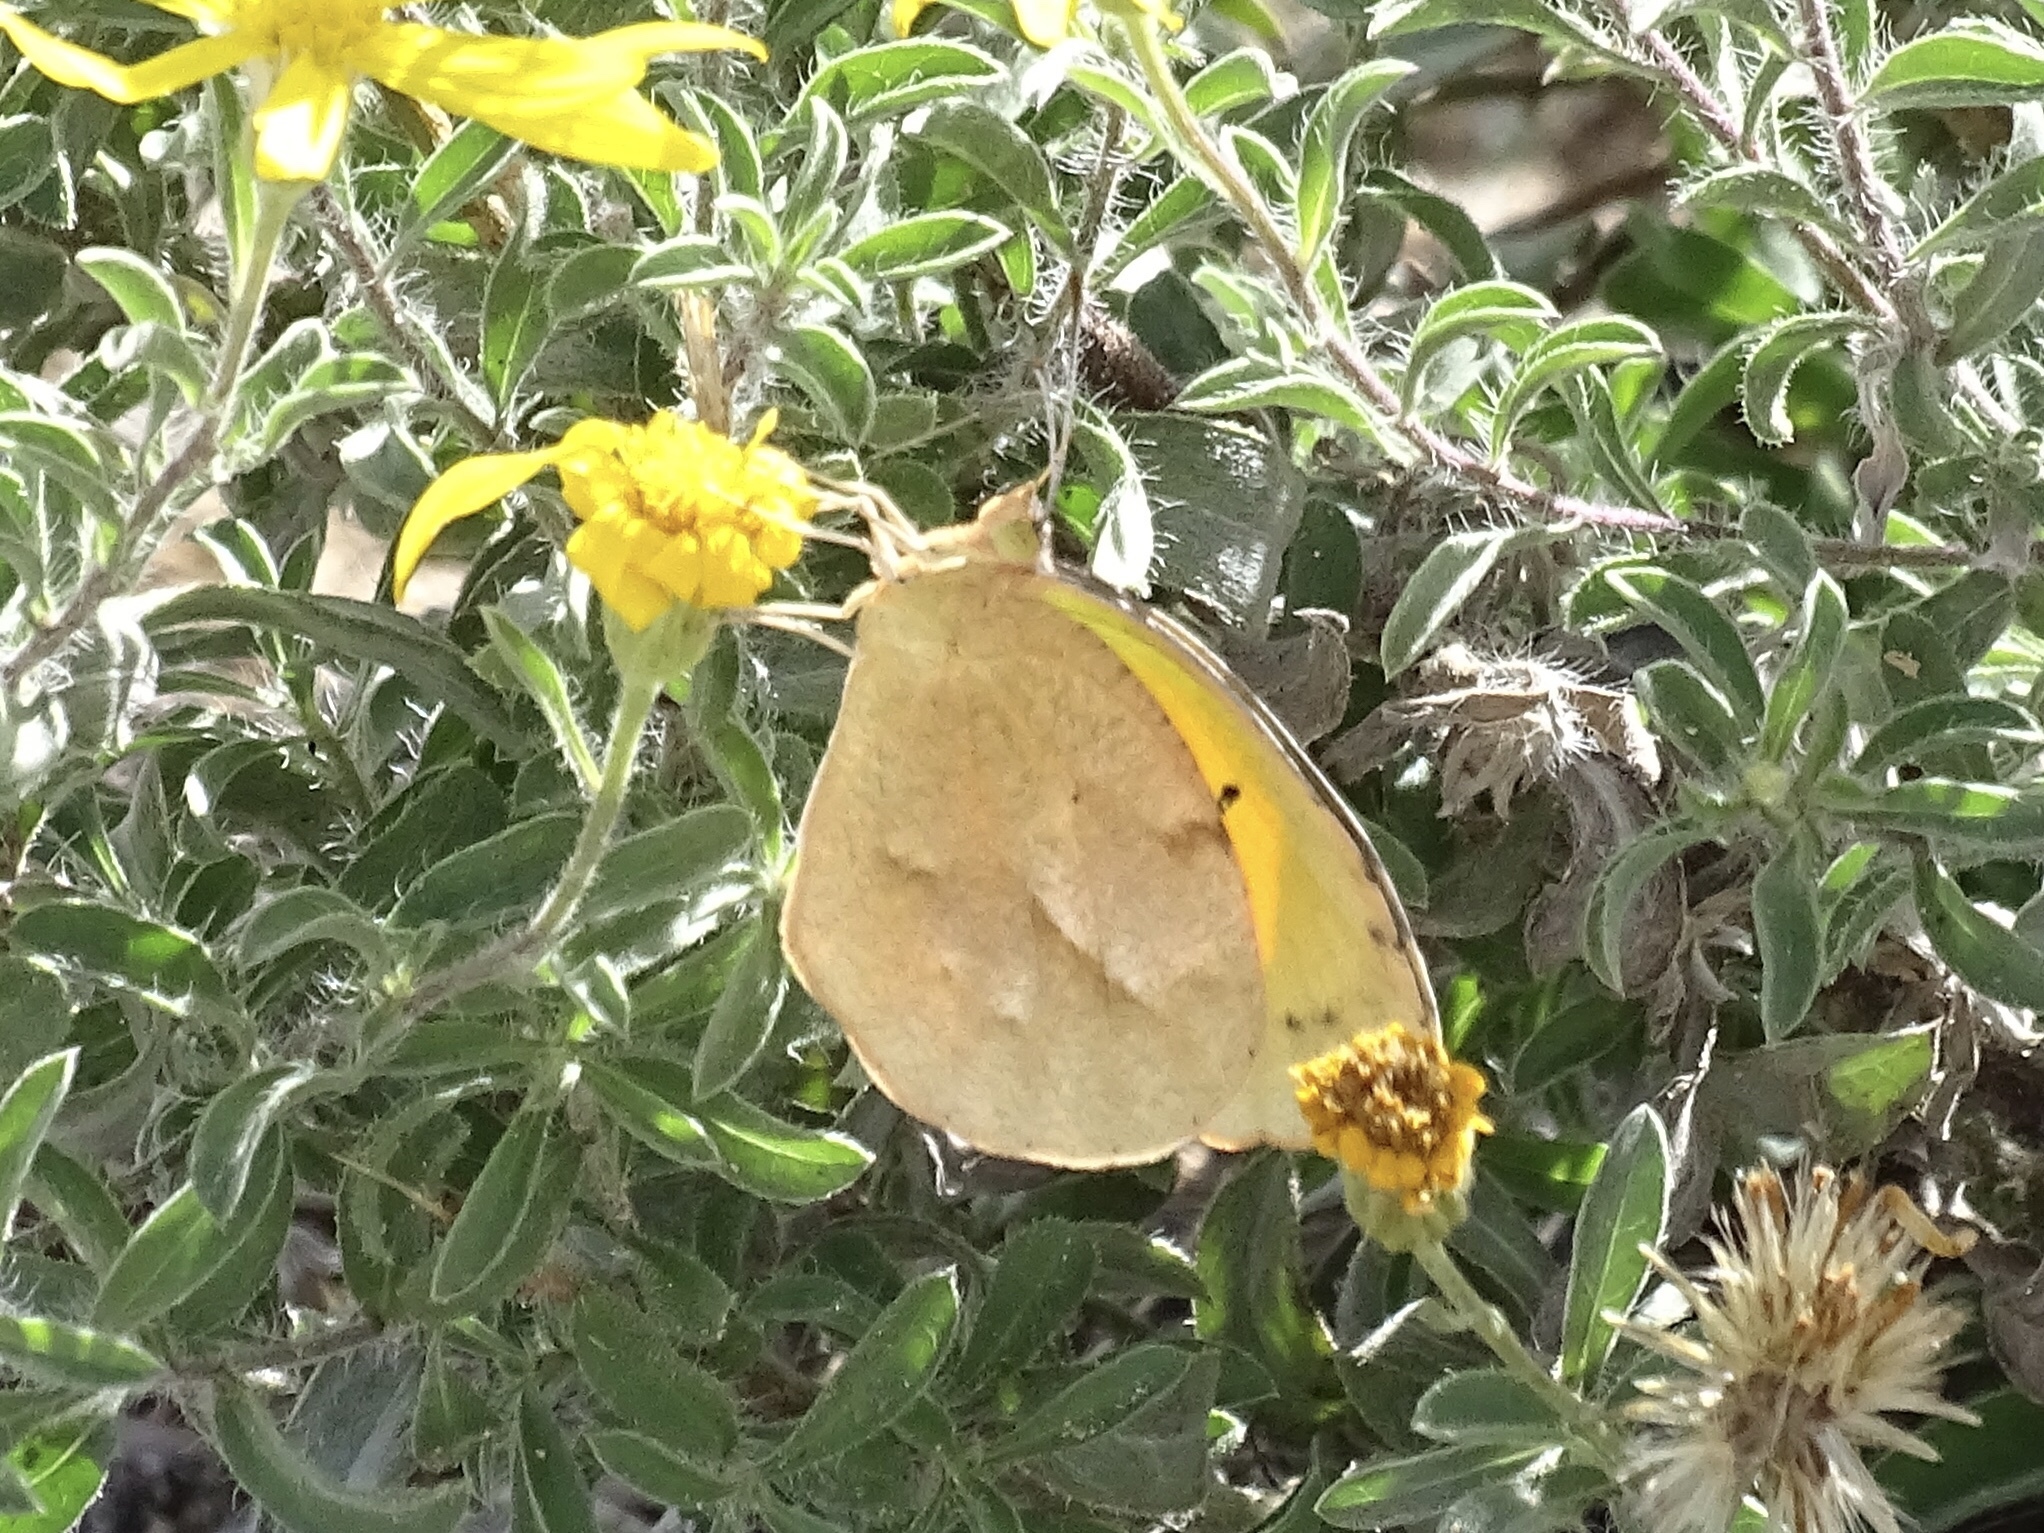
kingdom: Animalia
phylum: Arthropoda
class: Insecta
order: Lepidoptera
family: Pieridae
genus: Abaeis
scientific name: Abaeis nicippe
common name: Sleepy orange
